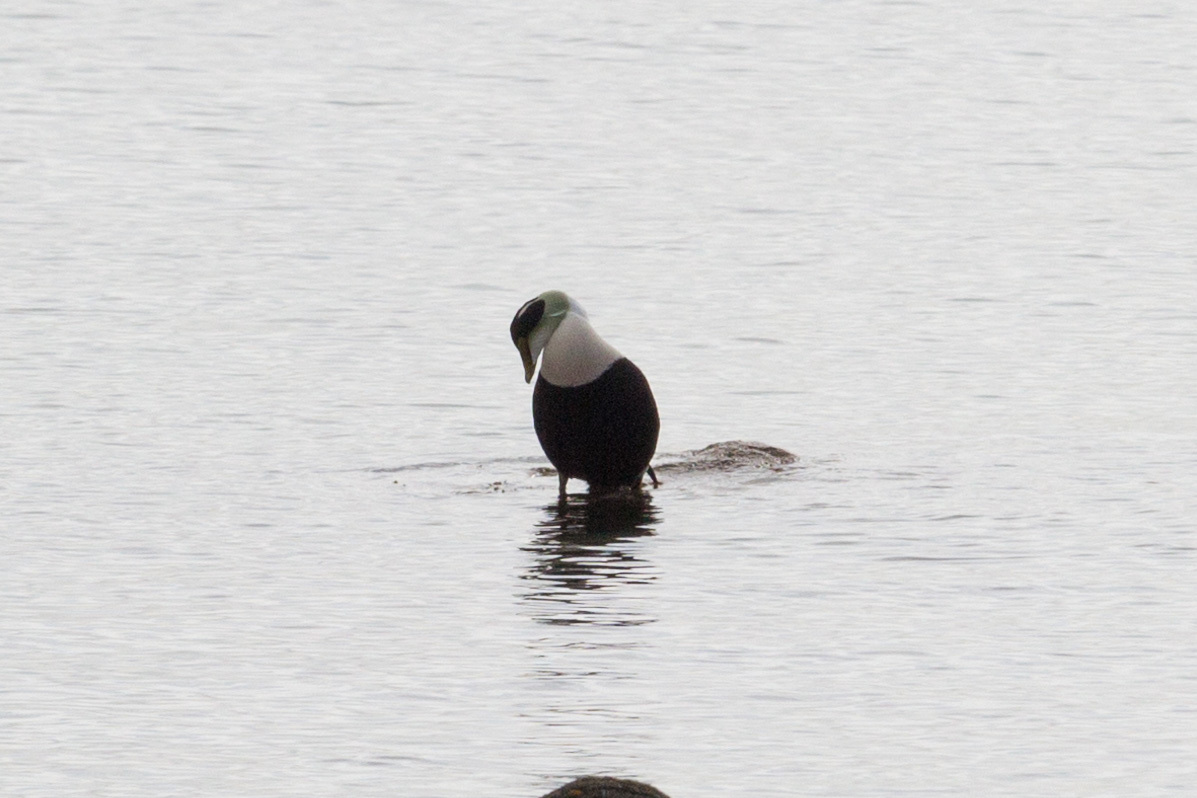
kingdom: Animalia
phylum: Chordata
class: Aves
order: Anseriformes
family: Anatidae
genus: Somateria
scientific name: Somateria mollissima
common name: Common eider
